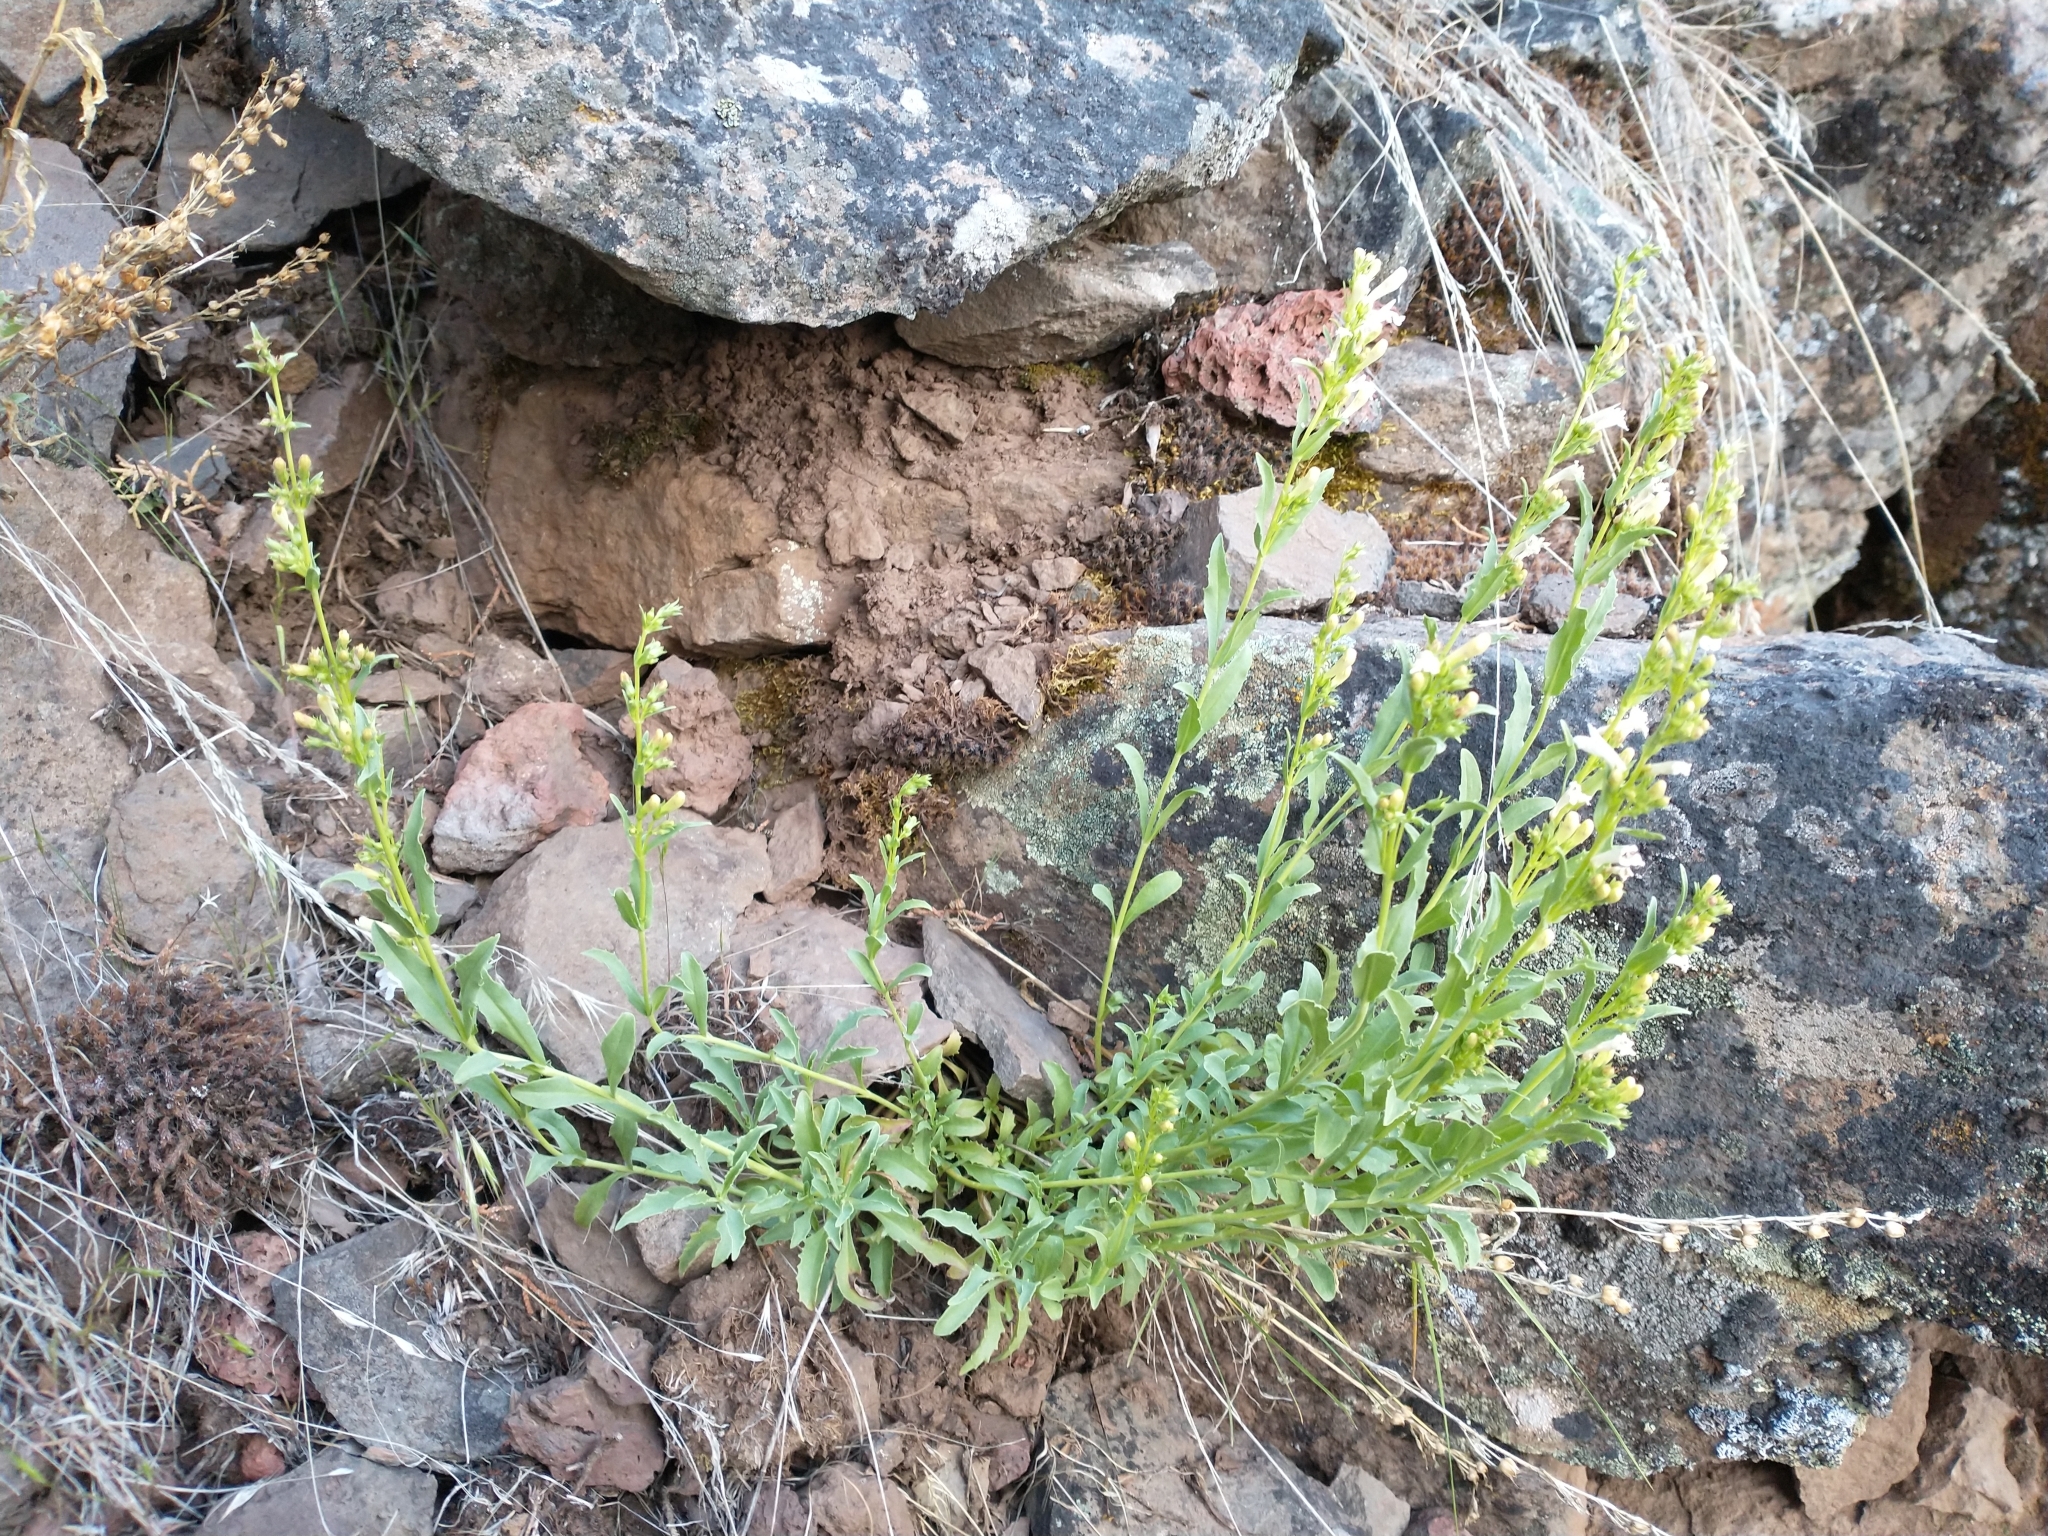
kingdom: Plantae
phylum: Tracheophyta
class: Magnoliopsida
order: Lamiales
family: Plantaginaceae
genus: Penstemon
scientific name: Penstemon deustus
